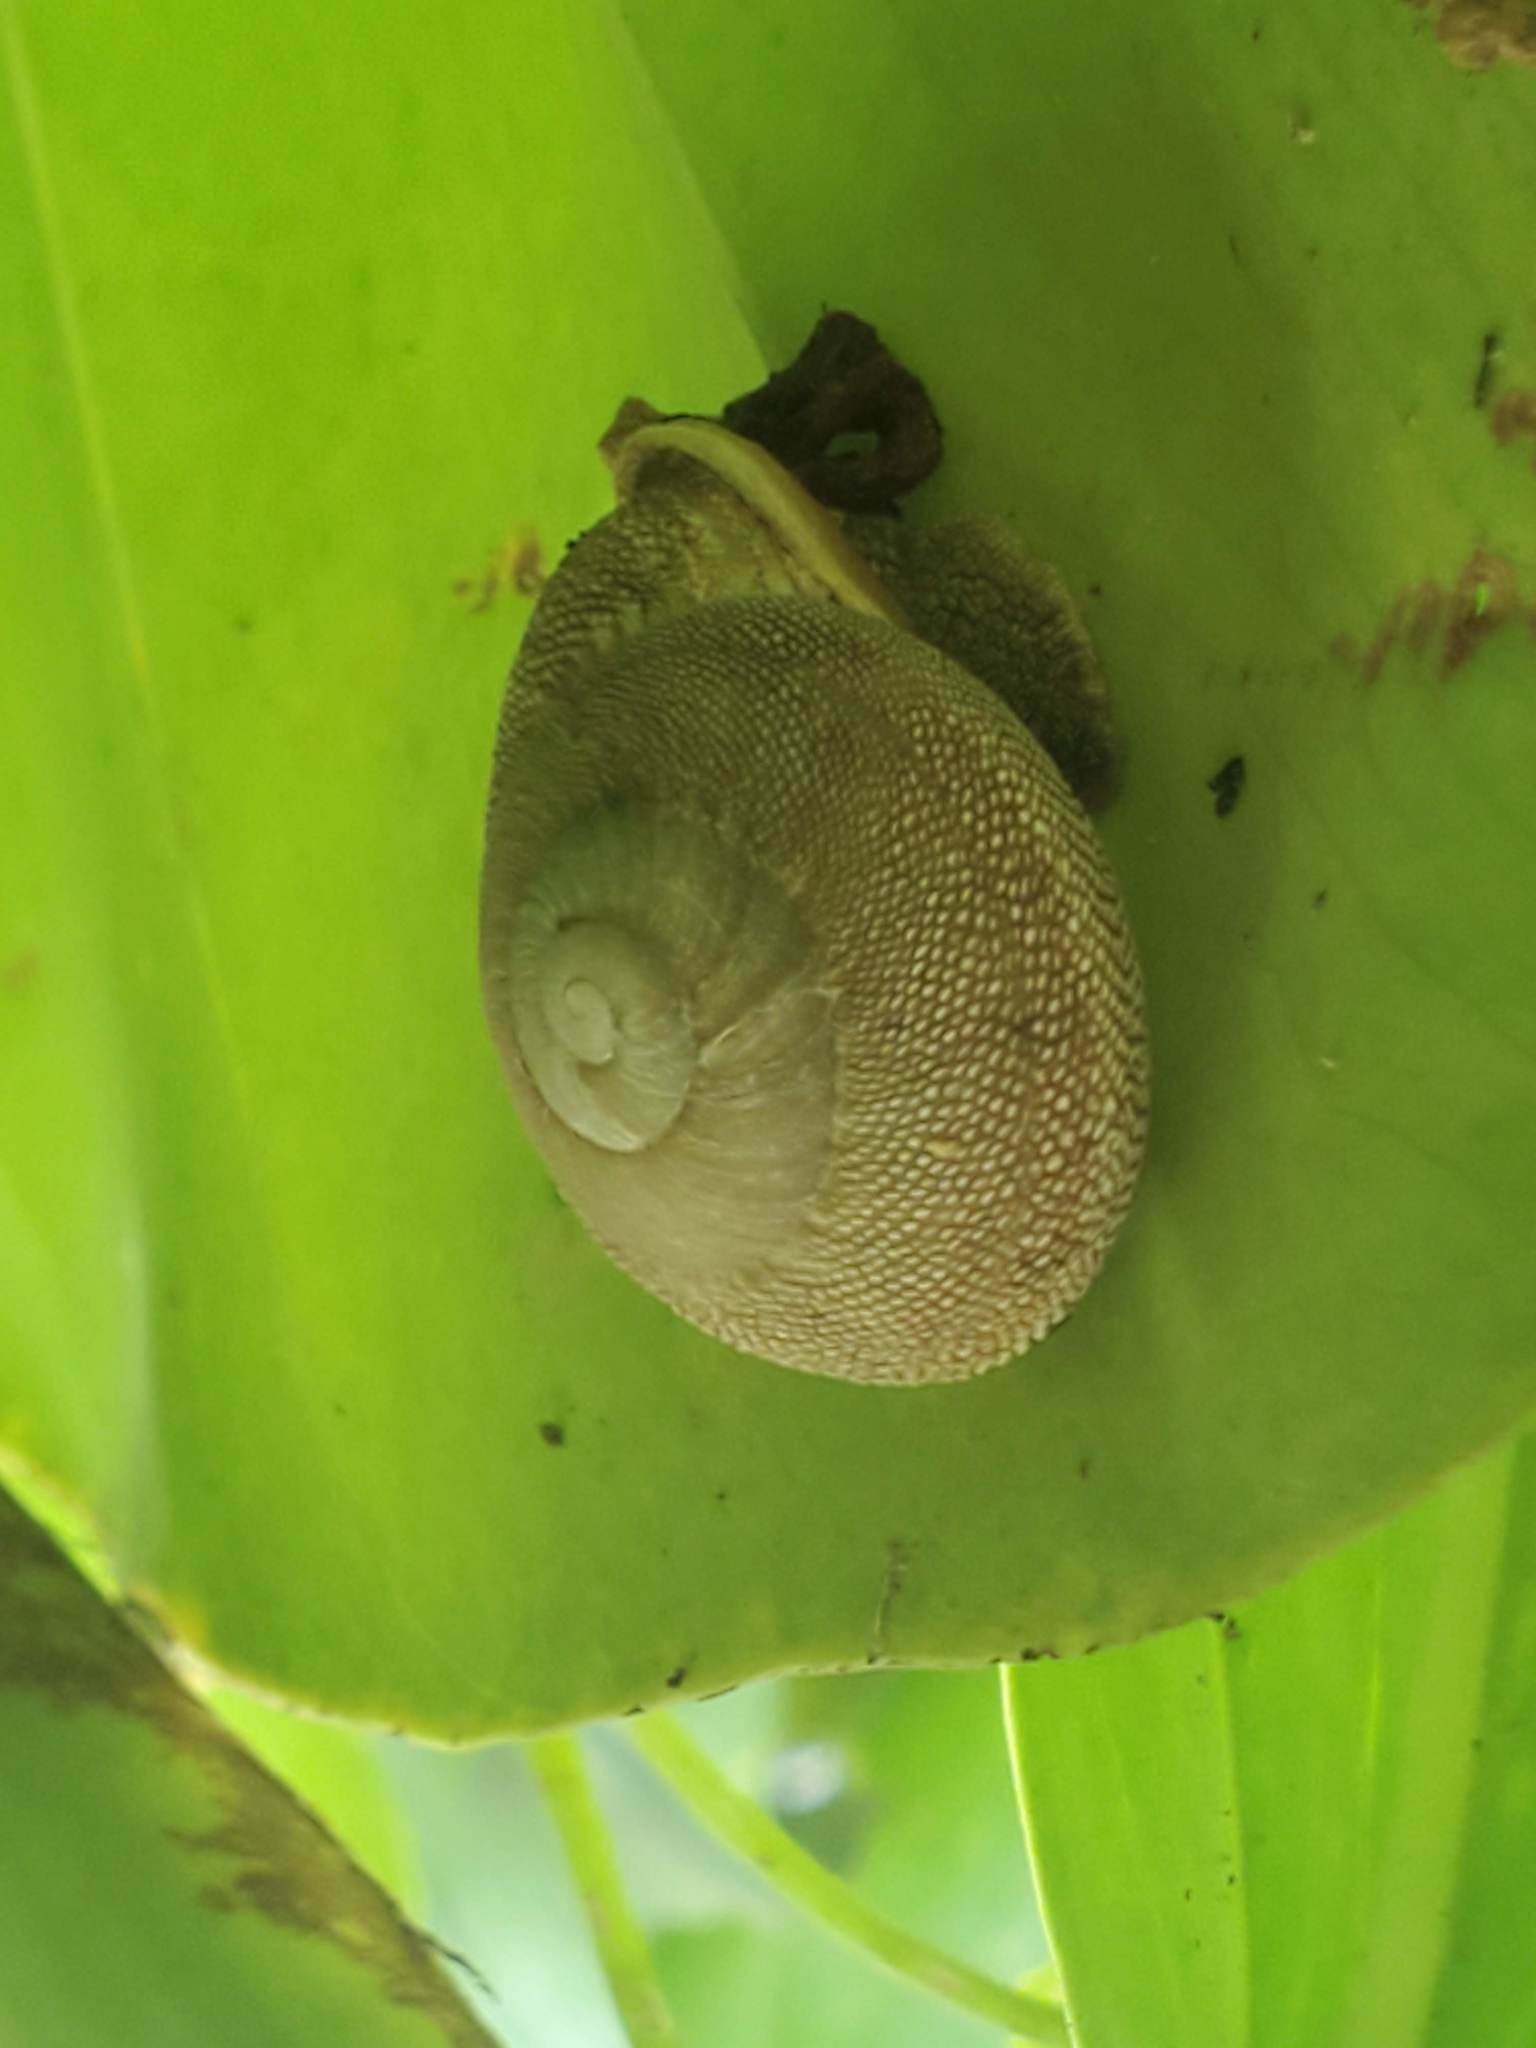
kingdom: Animalia
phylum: Mollusca
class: Gastropoda
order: Stylommatophora
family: Sagdidae
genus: Granodomus
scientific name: Granodomus lima
